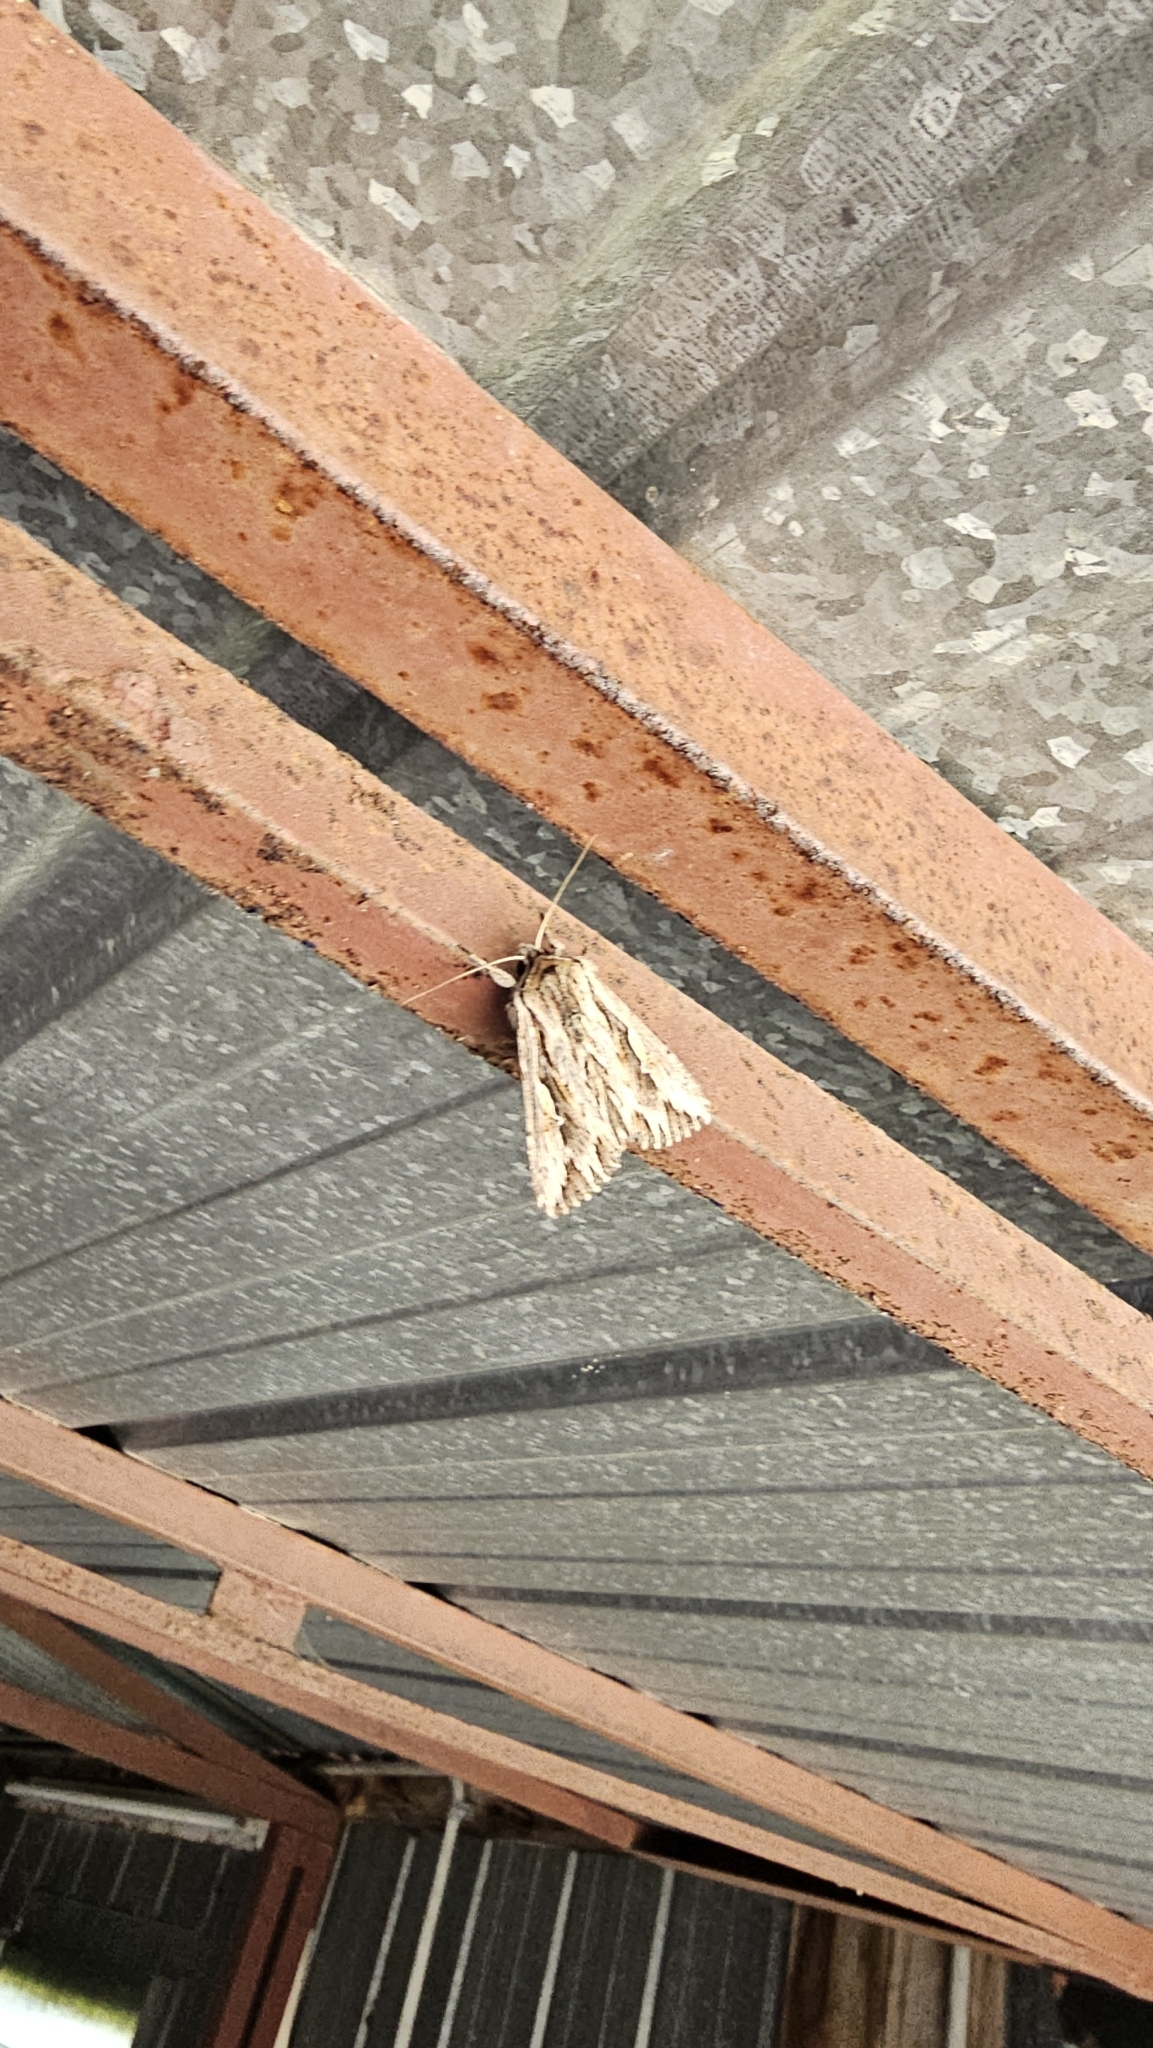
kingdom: Animalia
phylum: Arthropoda
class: Insecta
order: Lepidoptera
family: Noctuidae
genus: Persectania
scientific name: Persectania ewingii
